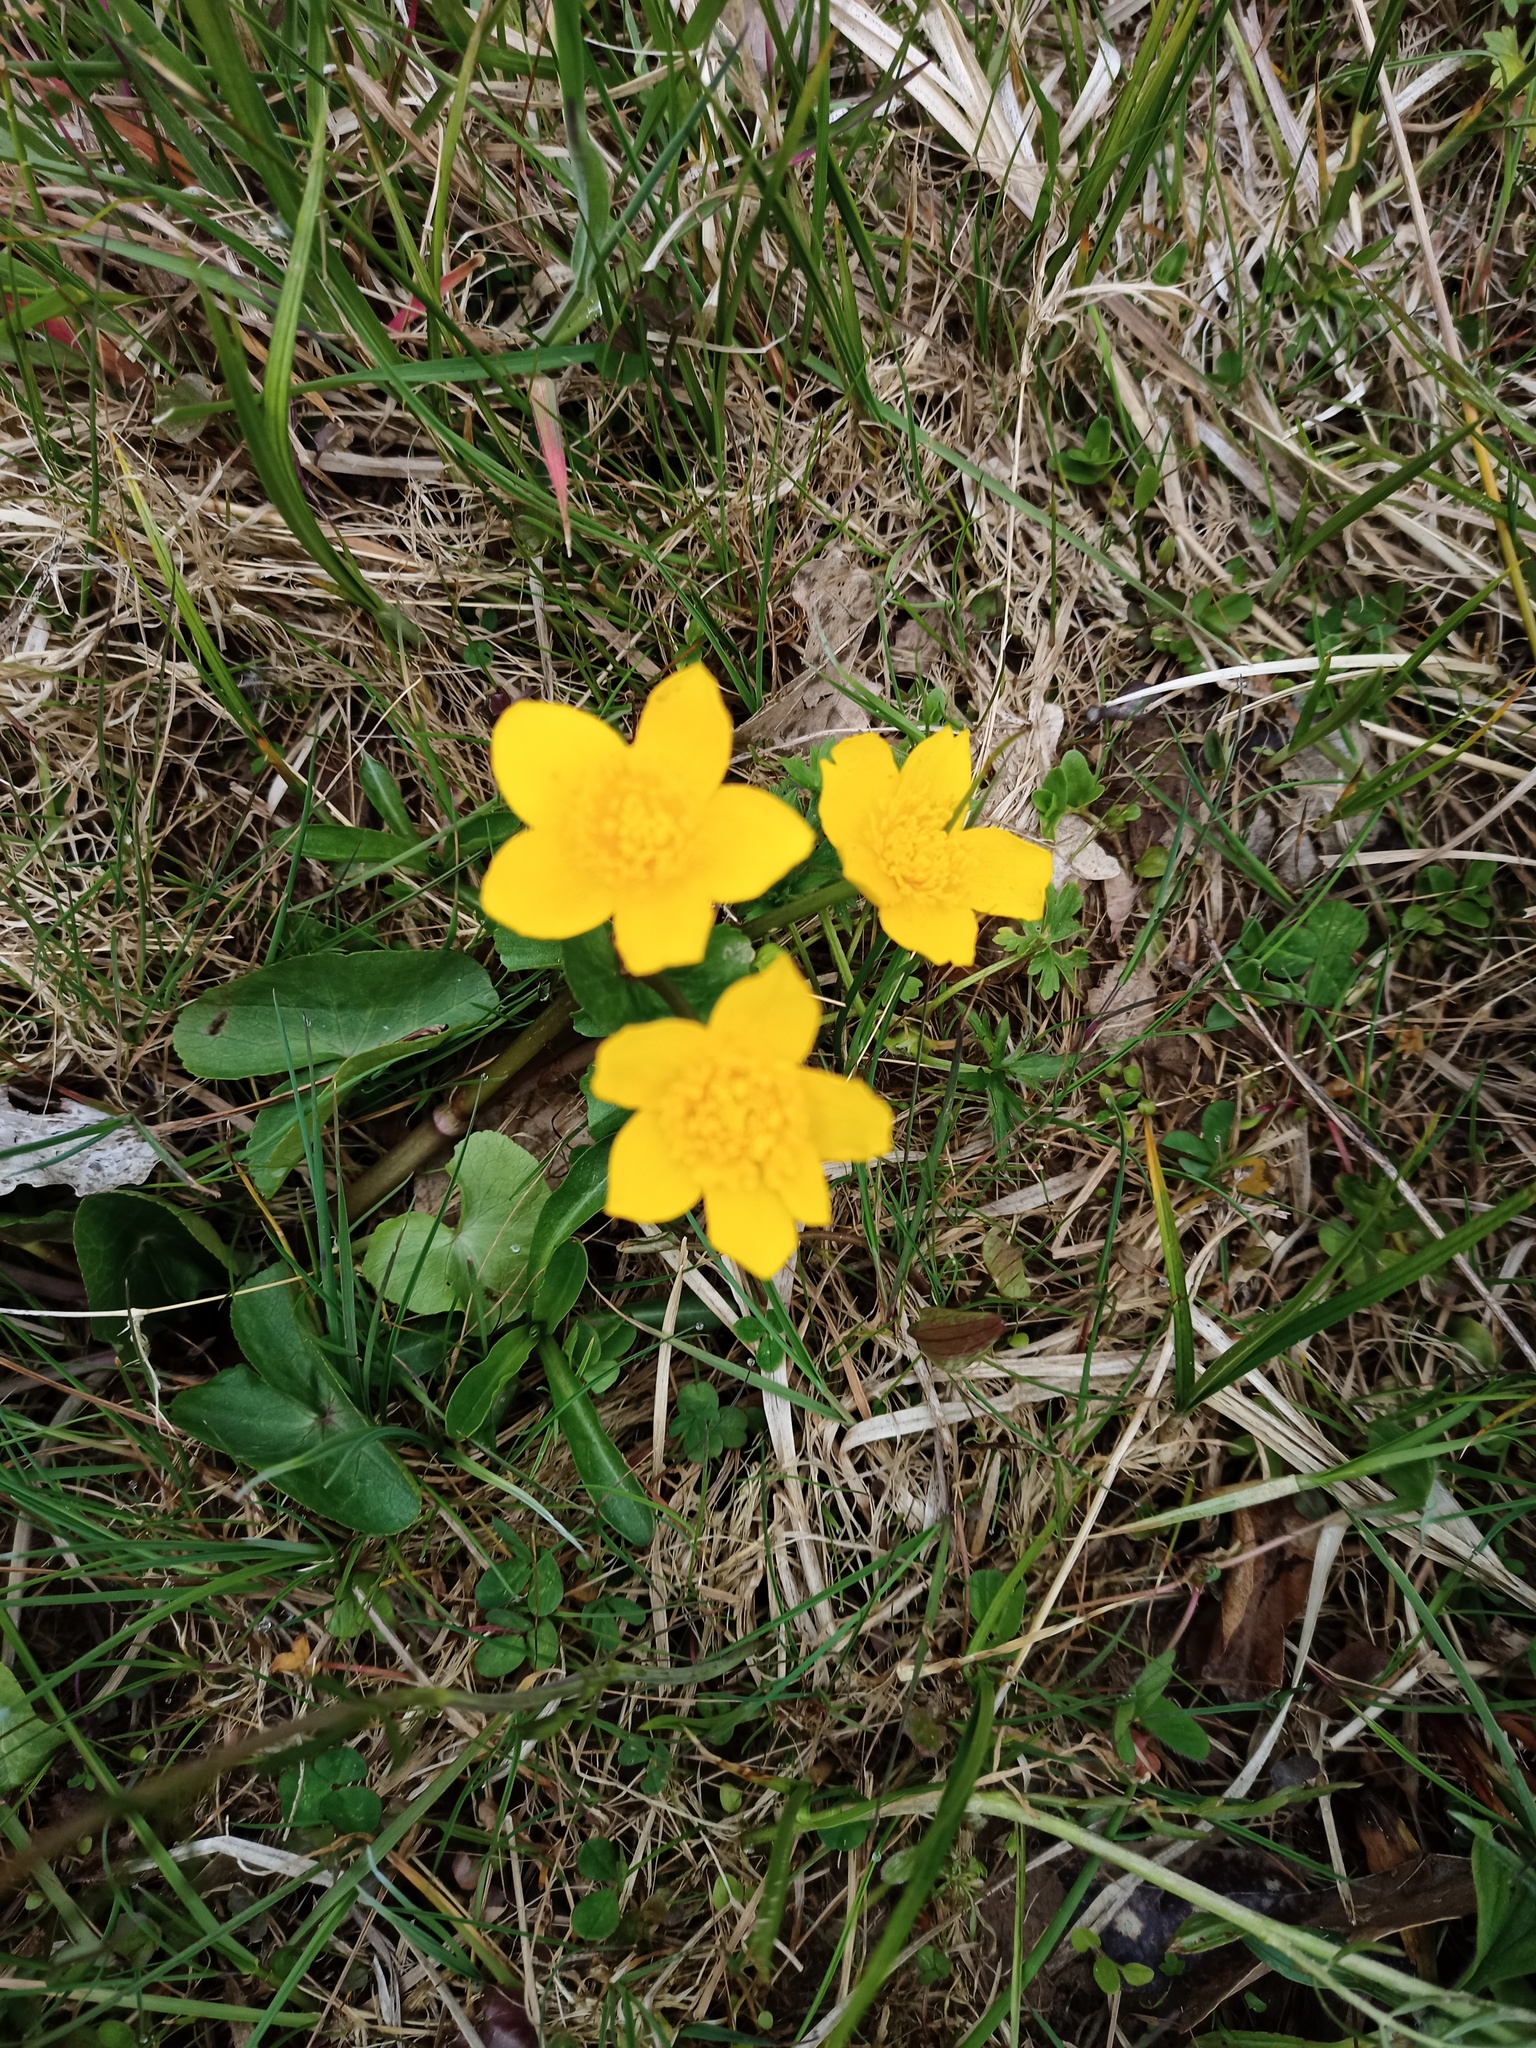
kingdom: Plantae
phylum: Tracheophyta
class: Magnoliopsida
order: Ranunculales
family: Ranunculaceae
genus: Caltha
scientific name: Caltha palustris
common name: Marsh marigold
